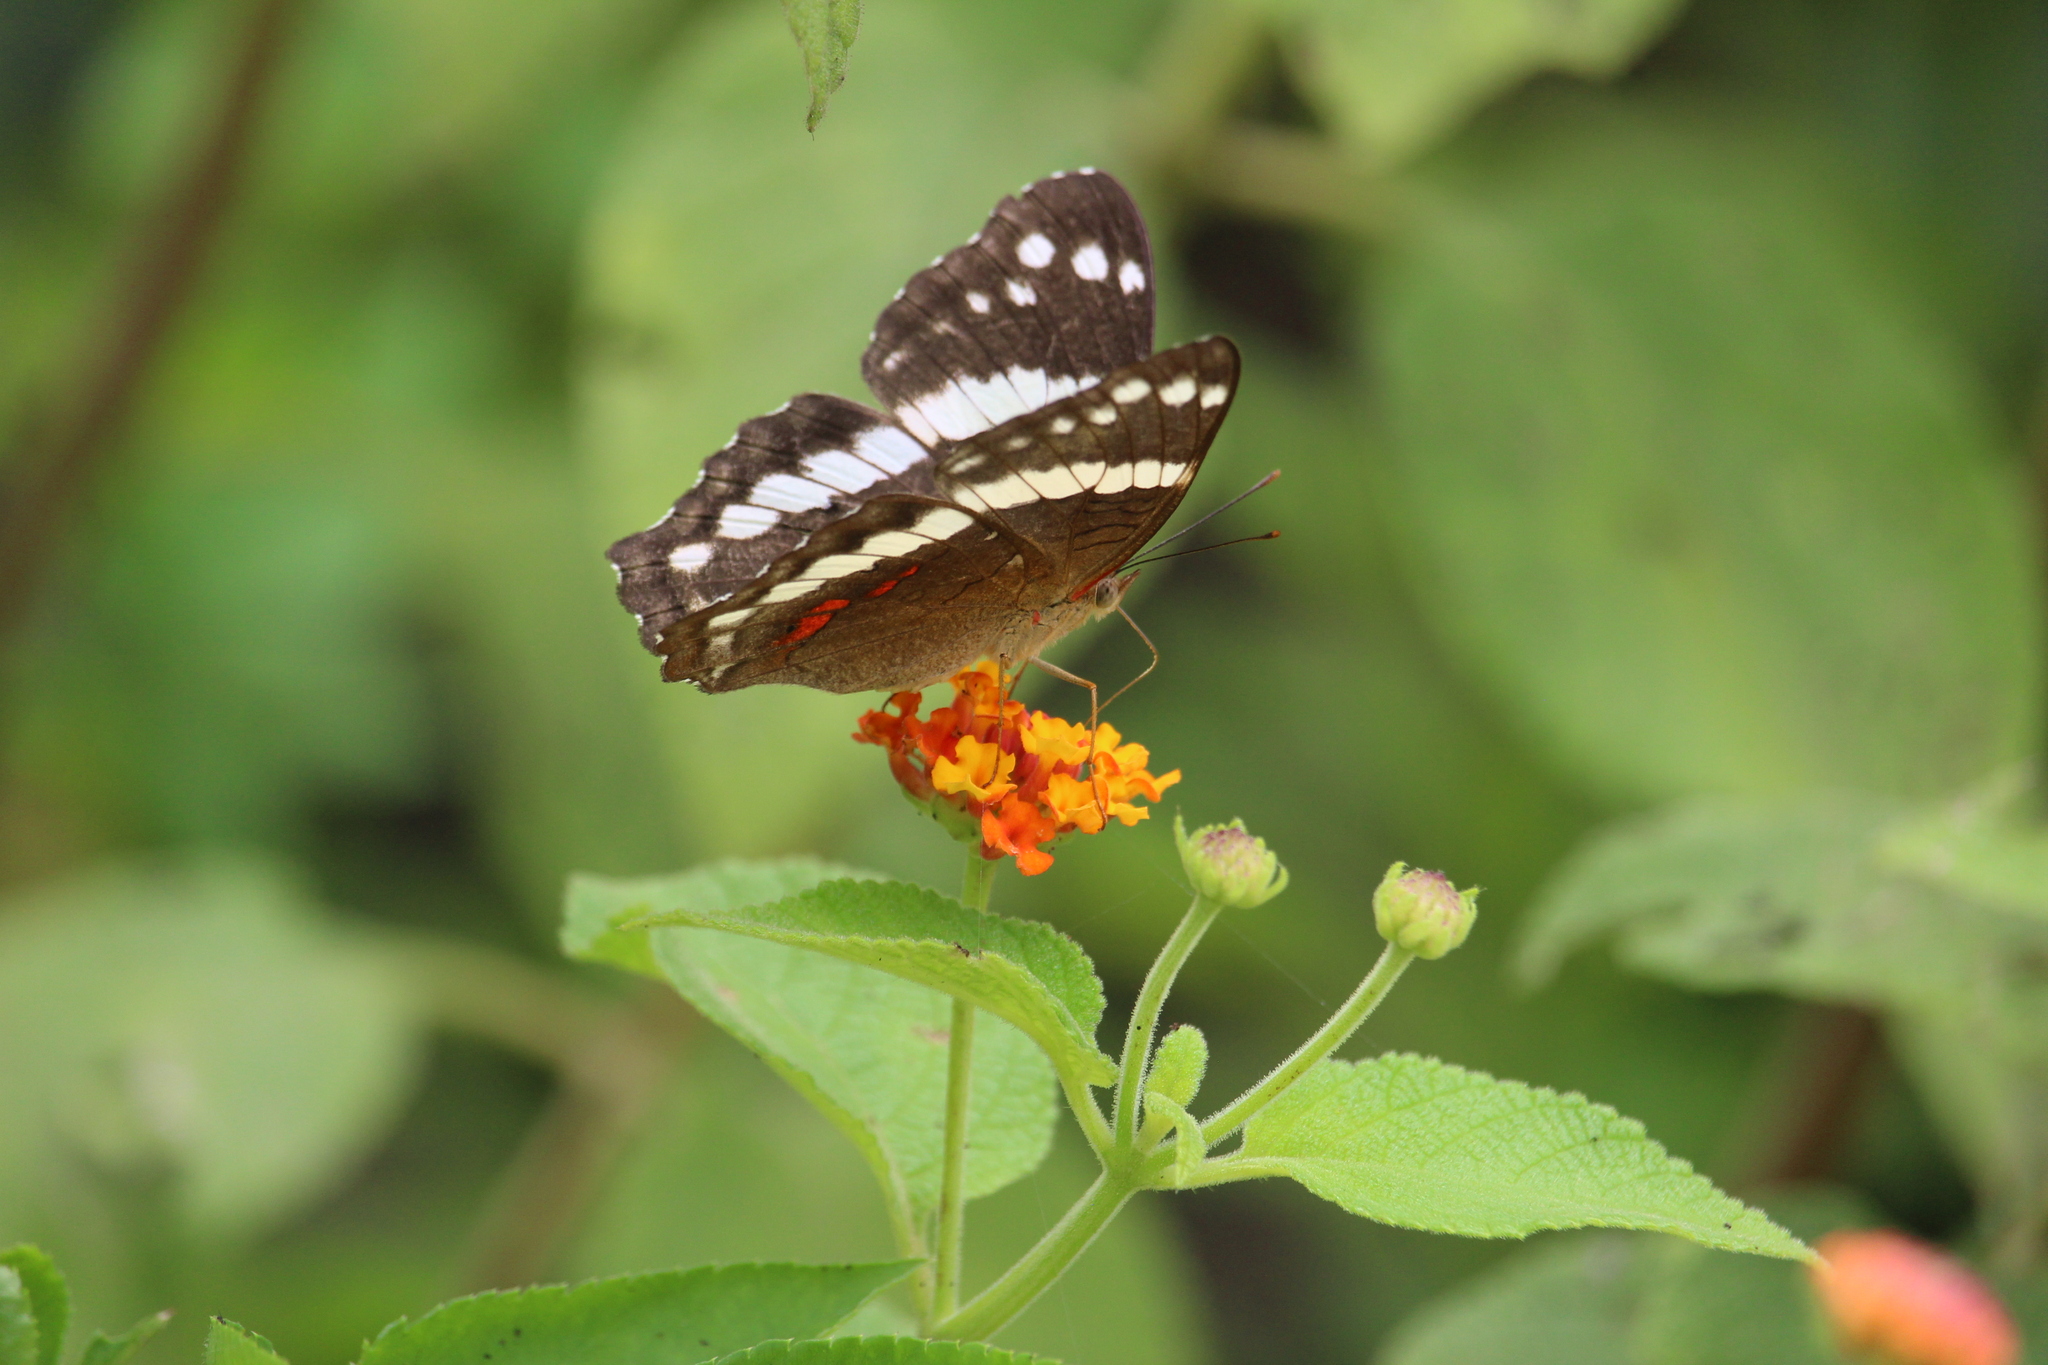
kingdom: Animalia
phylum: Arthropoda
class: Insecta
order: Lepidoptera
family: Nymphalidae
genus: Anartia
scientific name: Anartia fatima
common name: Banded peacock
